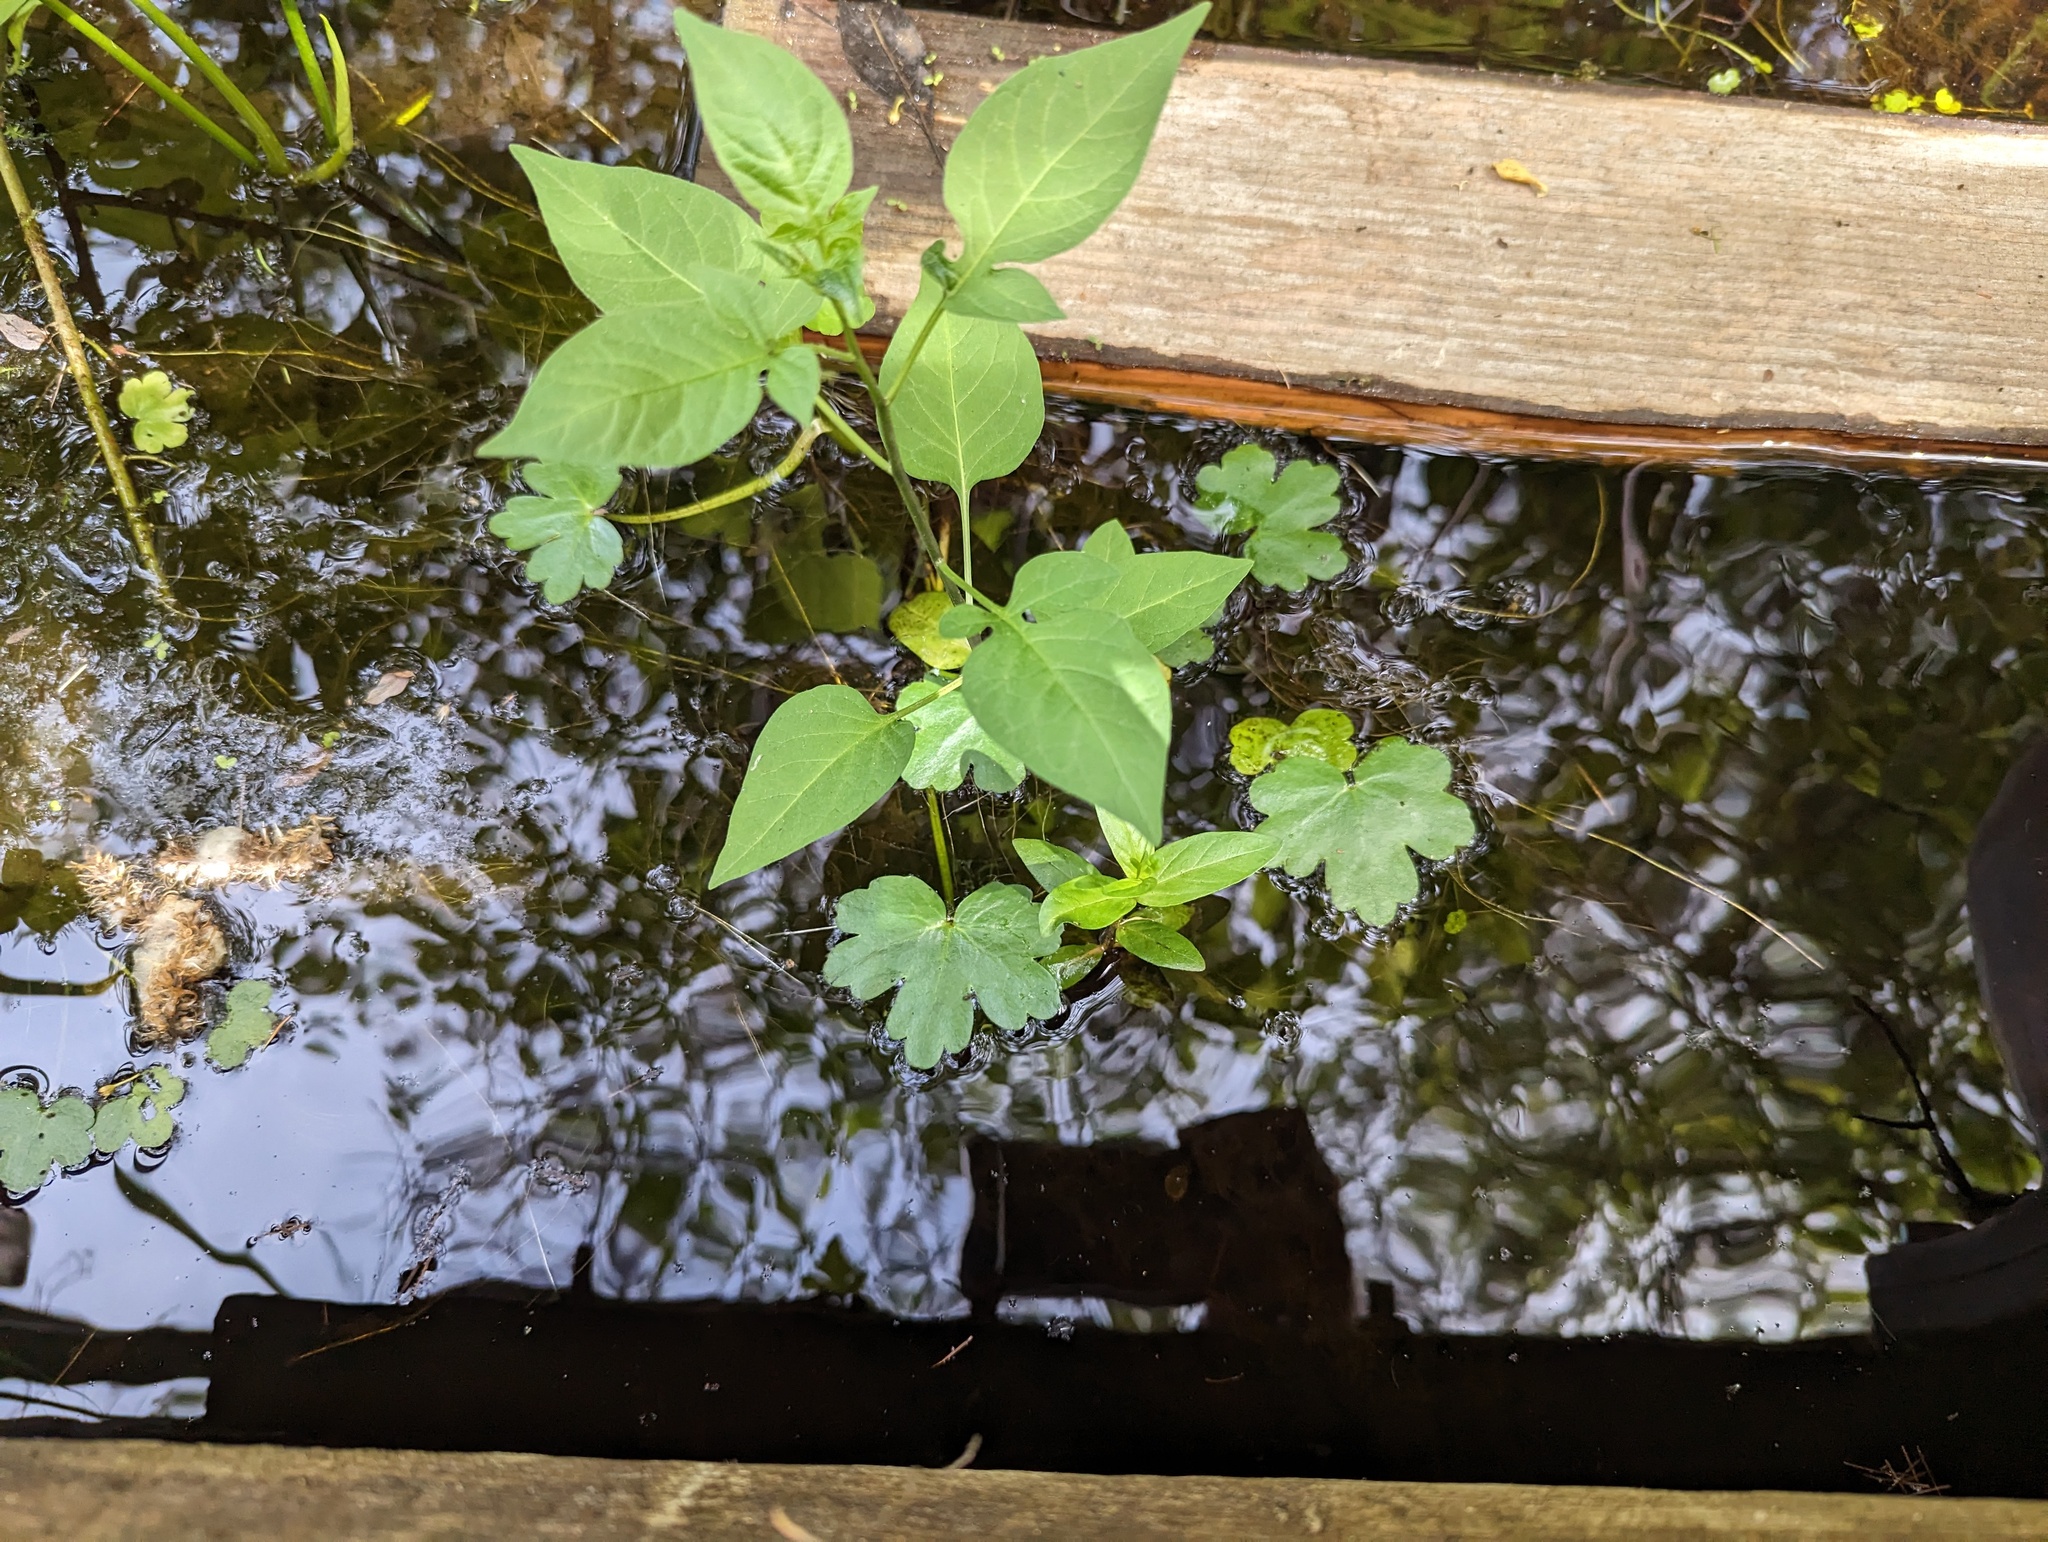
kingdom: Plantae
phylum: Tracheophyta
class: Magnoliopsida
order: Ranunculales
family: Ranunculaceae
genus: Ranunculus
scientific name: Ranunculus sceleratus
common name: Celery-leaved buttercup
